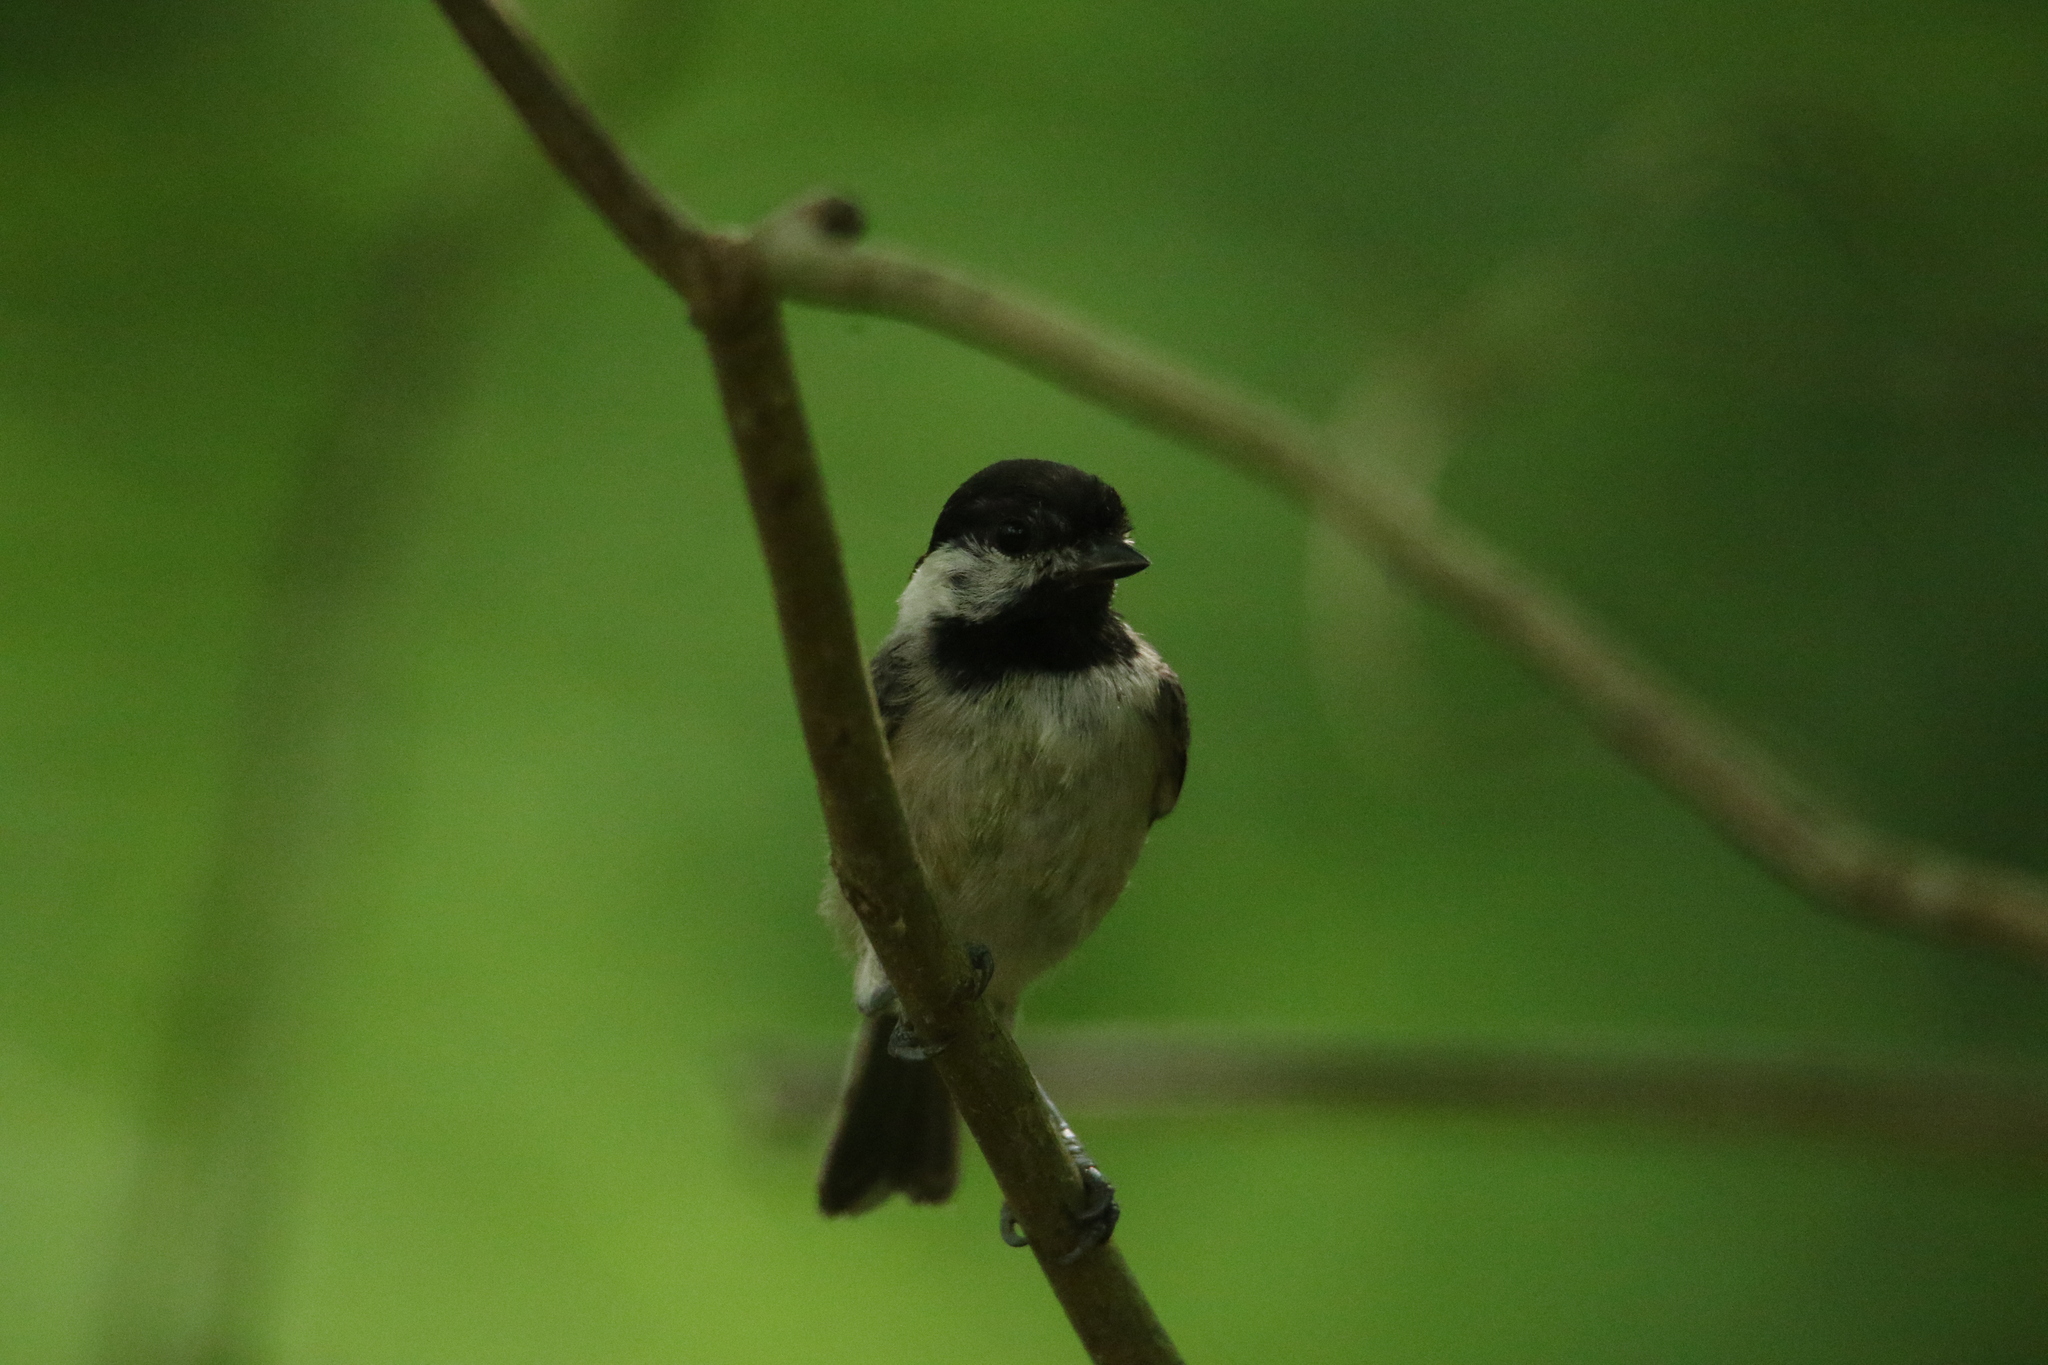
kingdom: Animalia
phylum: Chordata
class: Aves
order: Passeriformes
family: Paridae
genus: Poecile
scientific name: Poecile carolinensis
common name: Carolina chickadee
